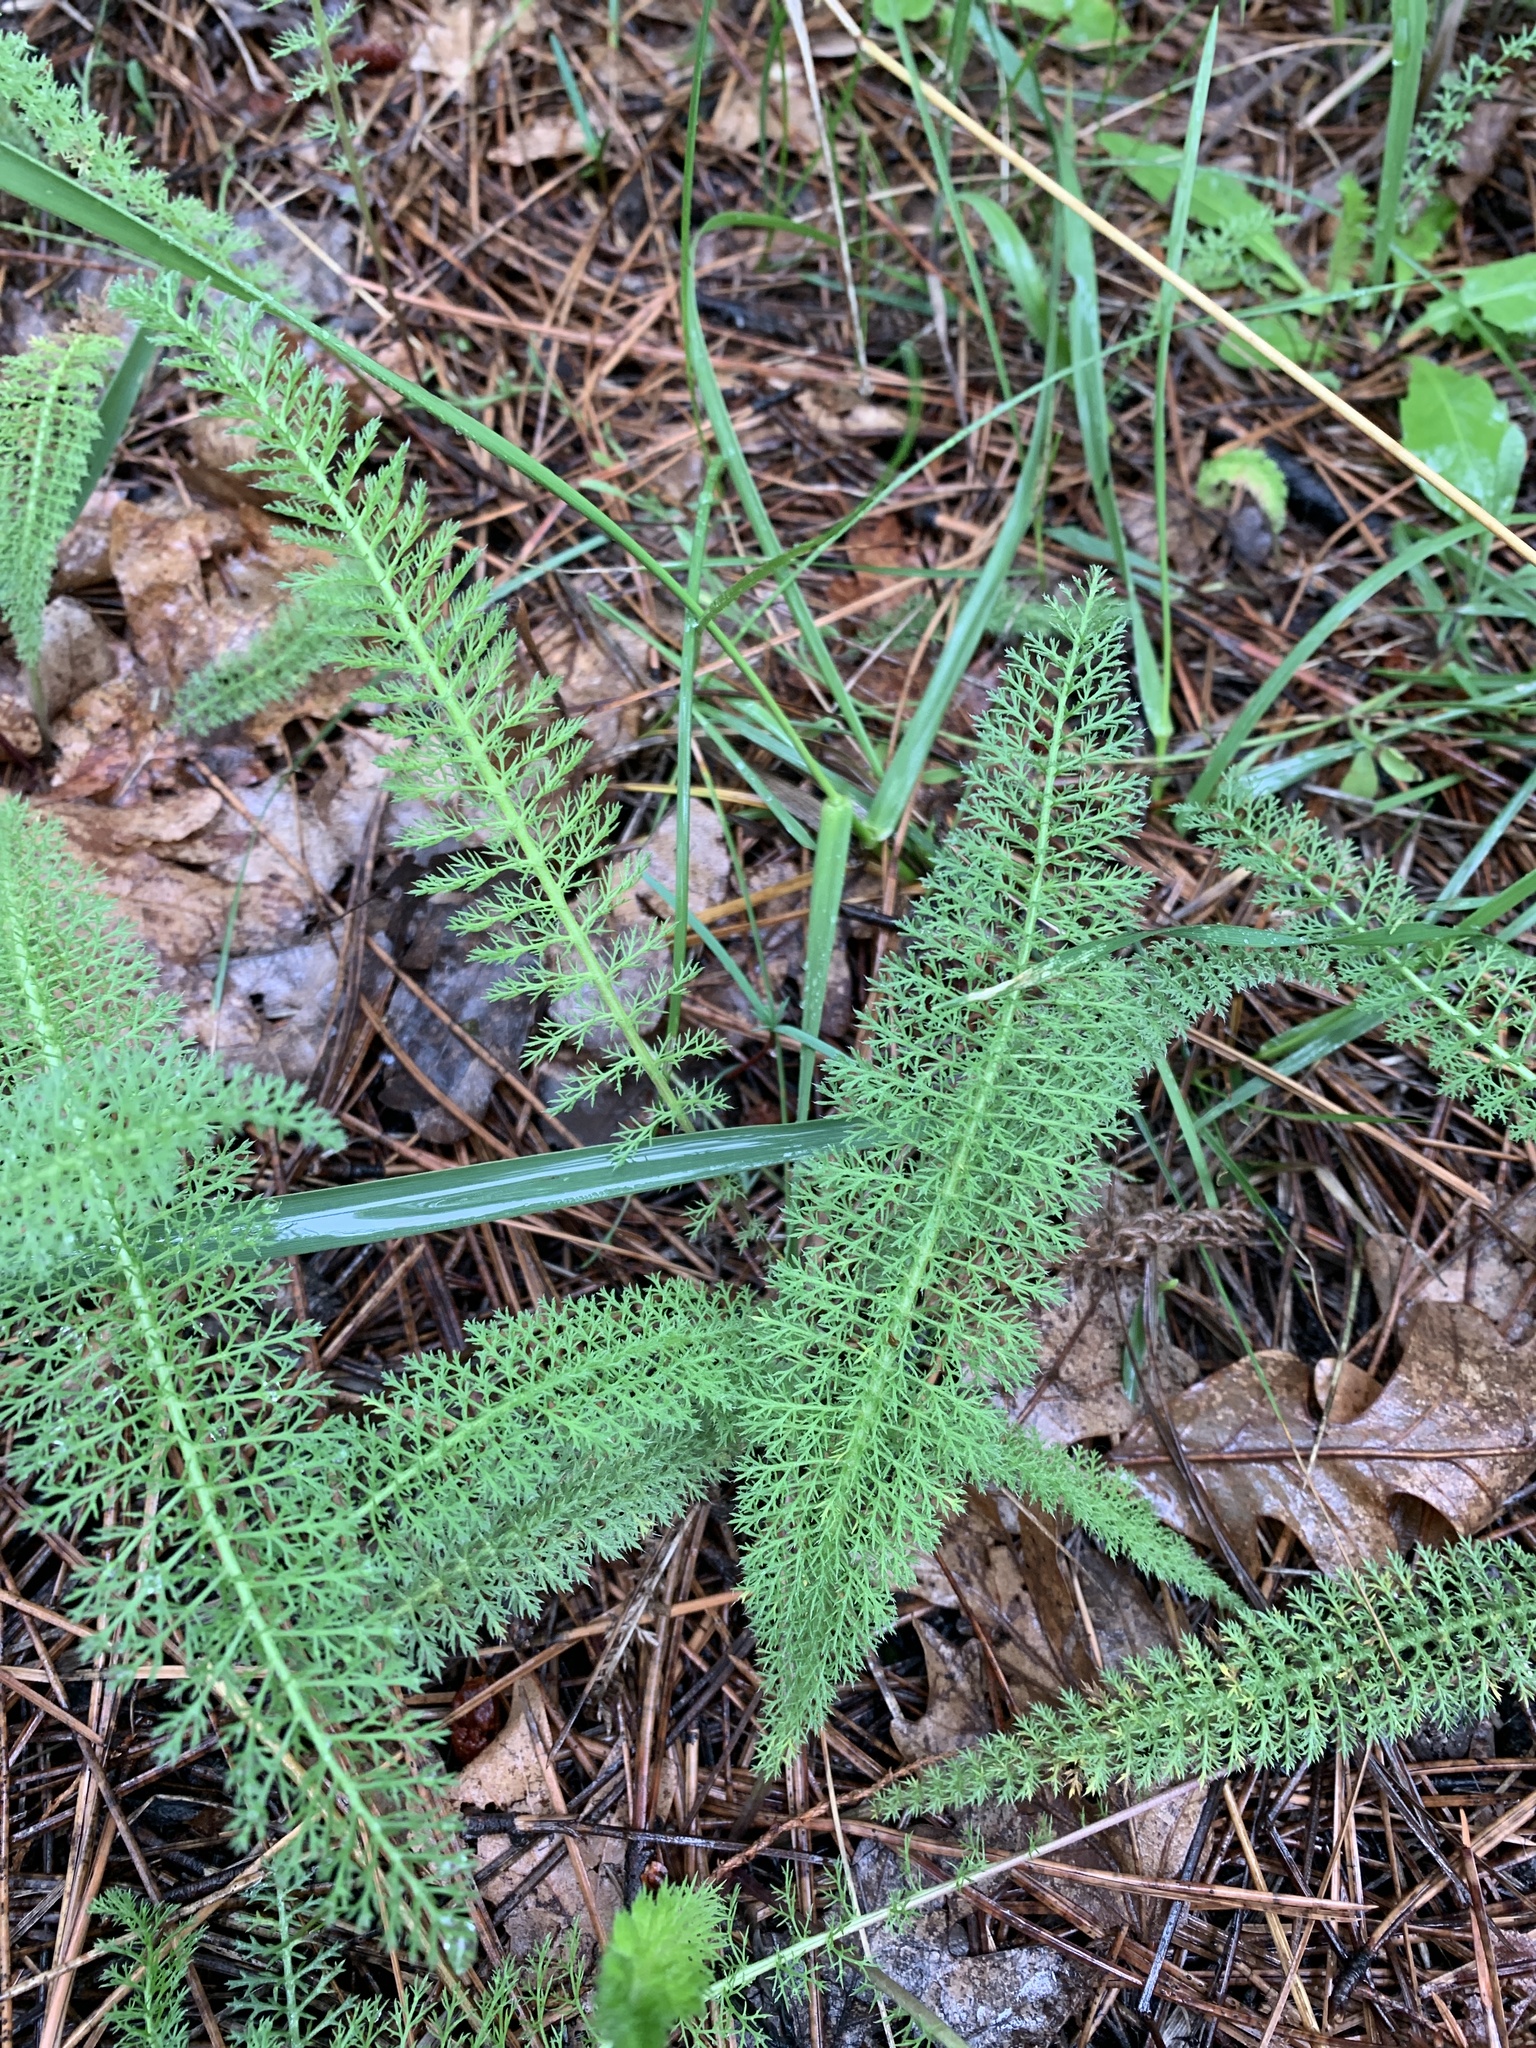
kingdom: Plantae
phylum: Tracheophyta
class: Magnoliopsida
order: Asterales
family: Asteraceae
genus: Achillea
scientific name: Achillea millefolium
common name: Yarrow
